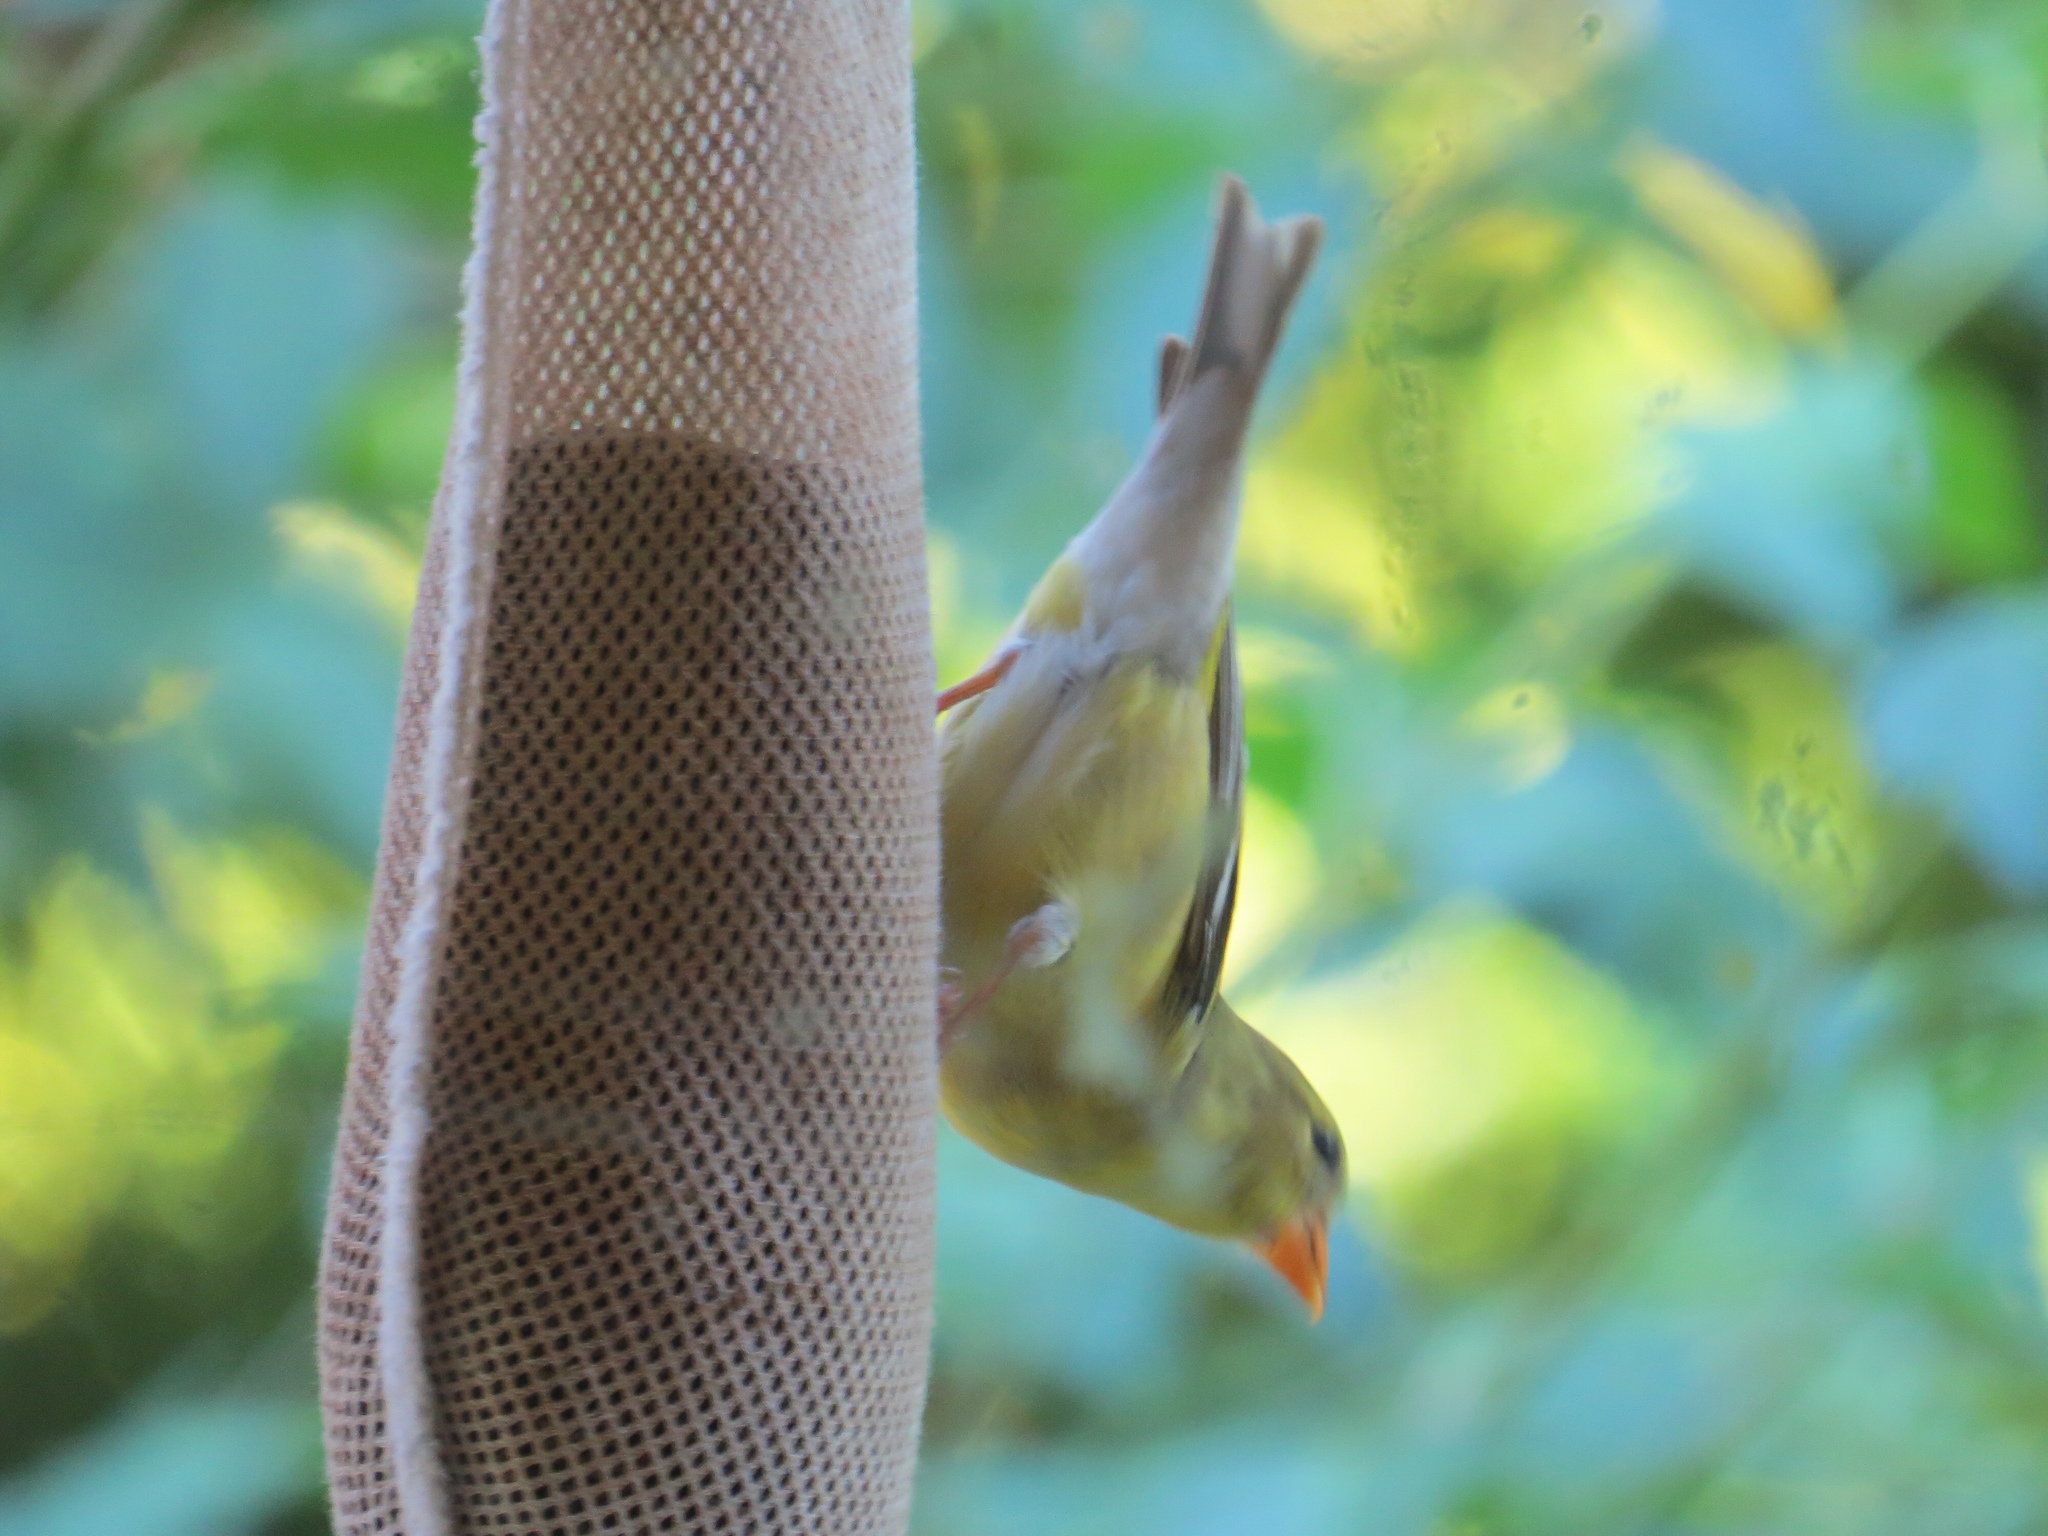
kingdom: Animalia
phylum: Chordata
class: Aves
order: Passeriformes
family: Fringillidae
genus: Spinus
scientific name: Spinus tristis
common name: American goldfinch
